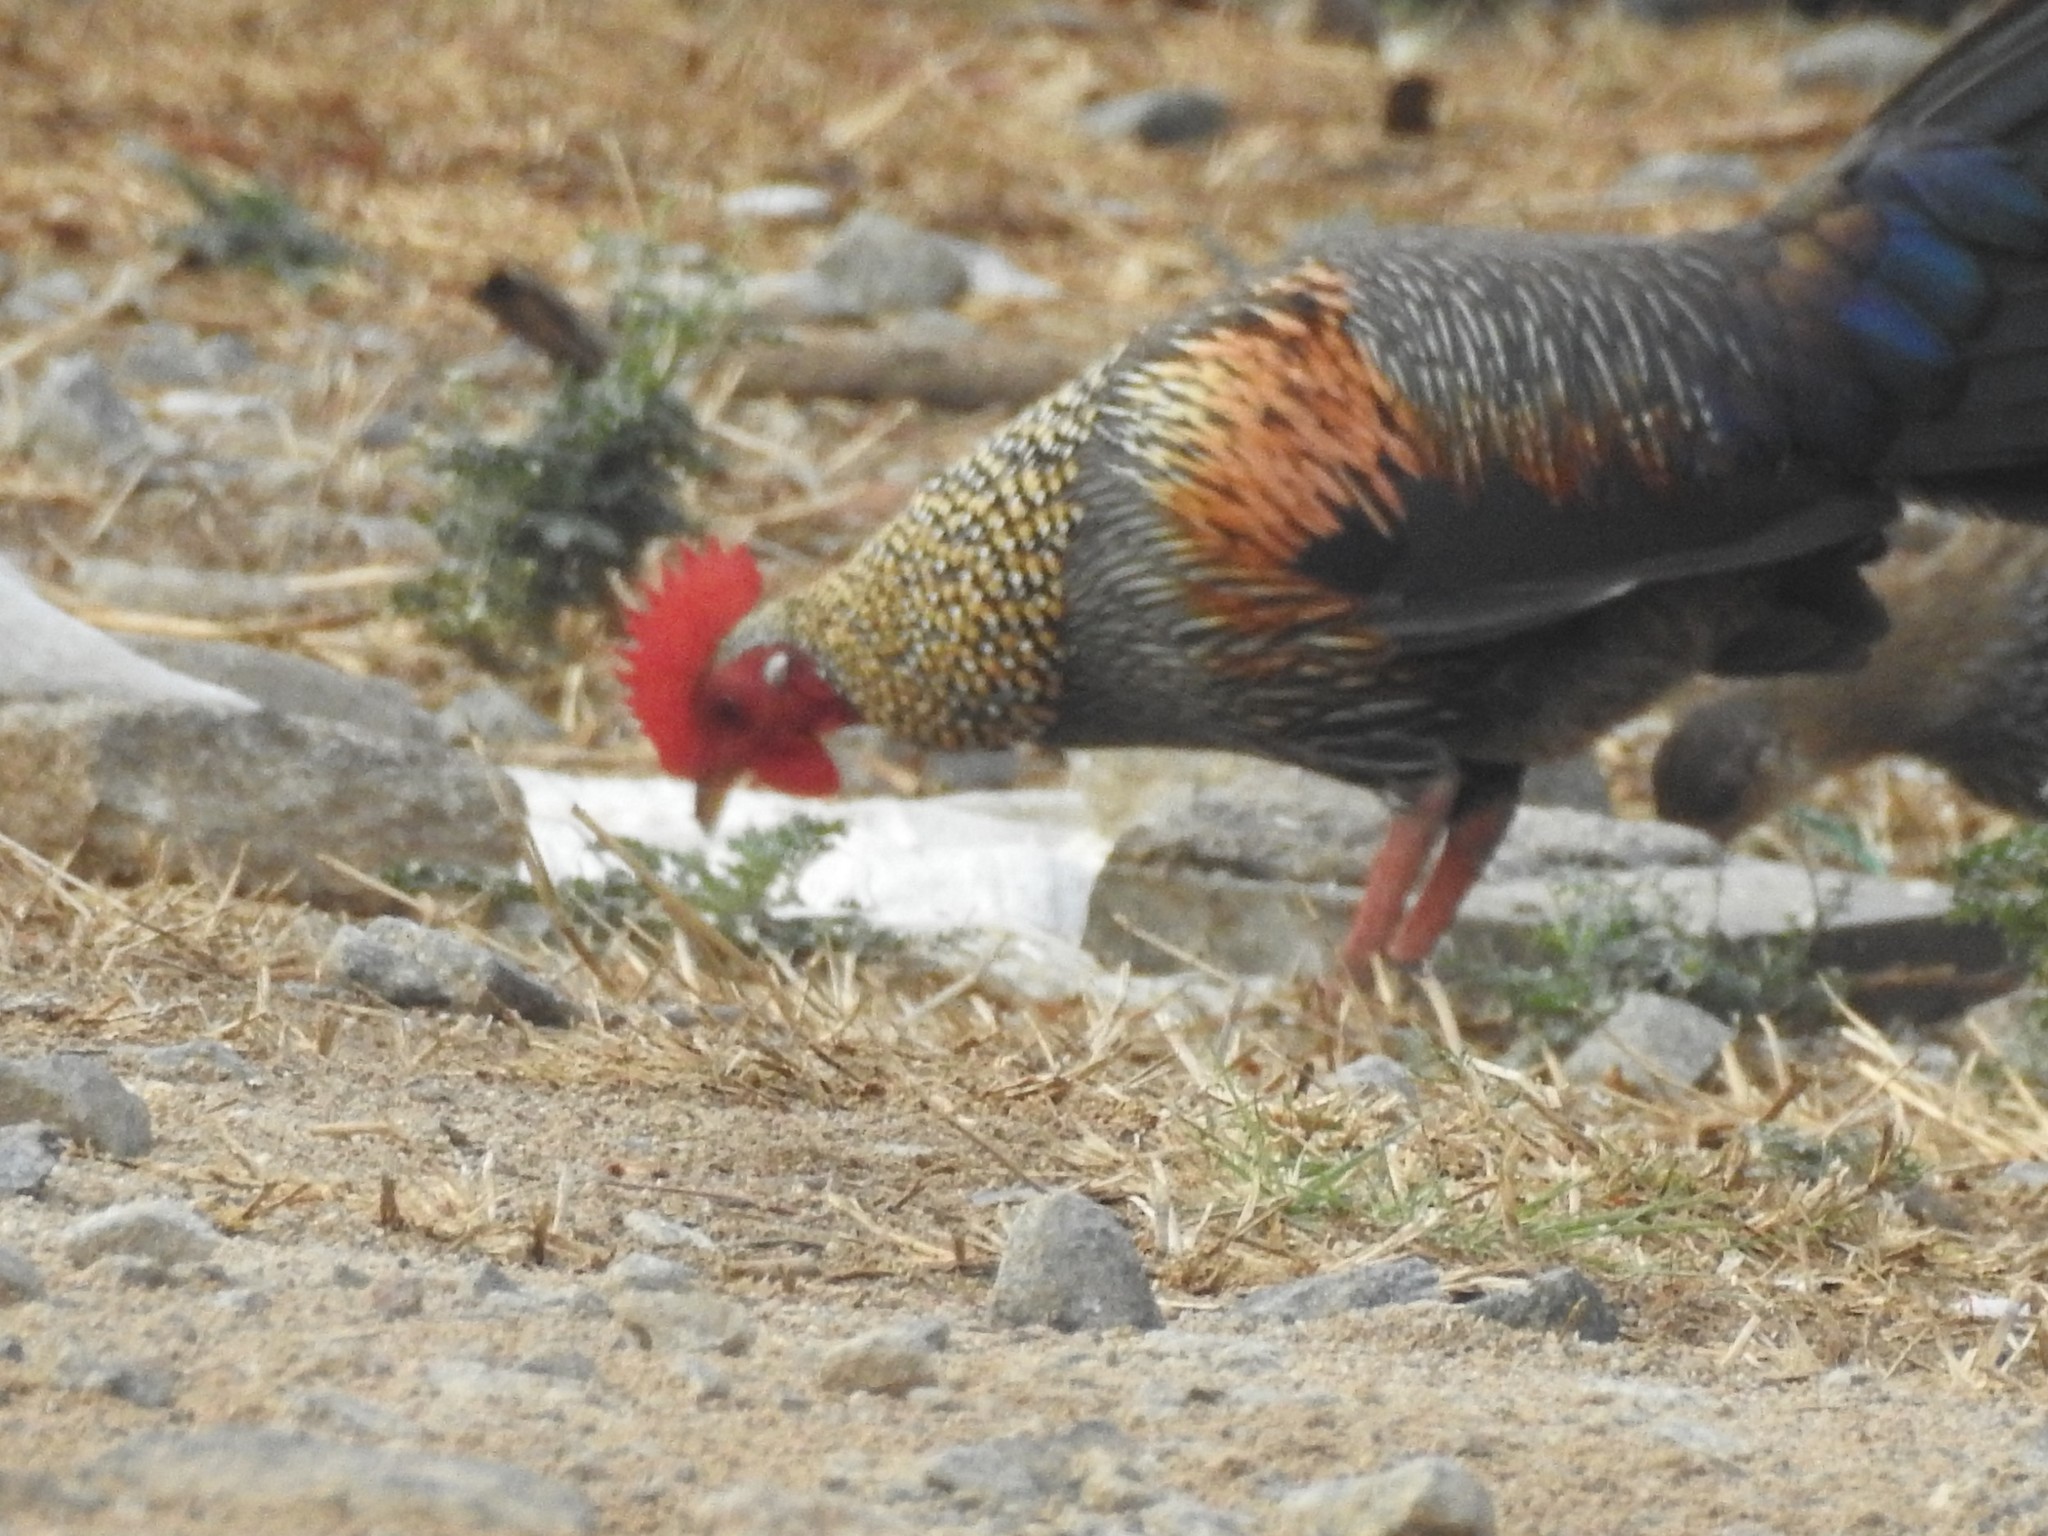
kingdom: Animalia
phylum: Chordata
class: Aves
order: Galliformes
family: Phasianidae
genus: Gallus
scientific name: Gallus sonneratii
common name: Grey junglefowl
